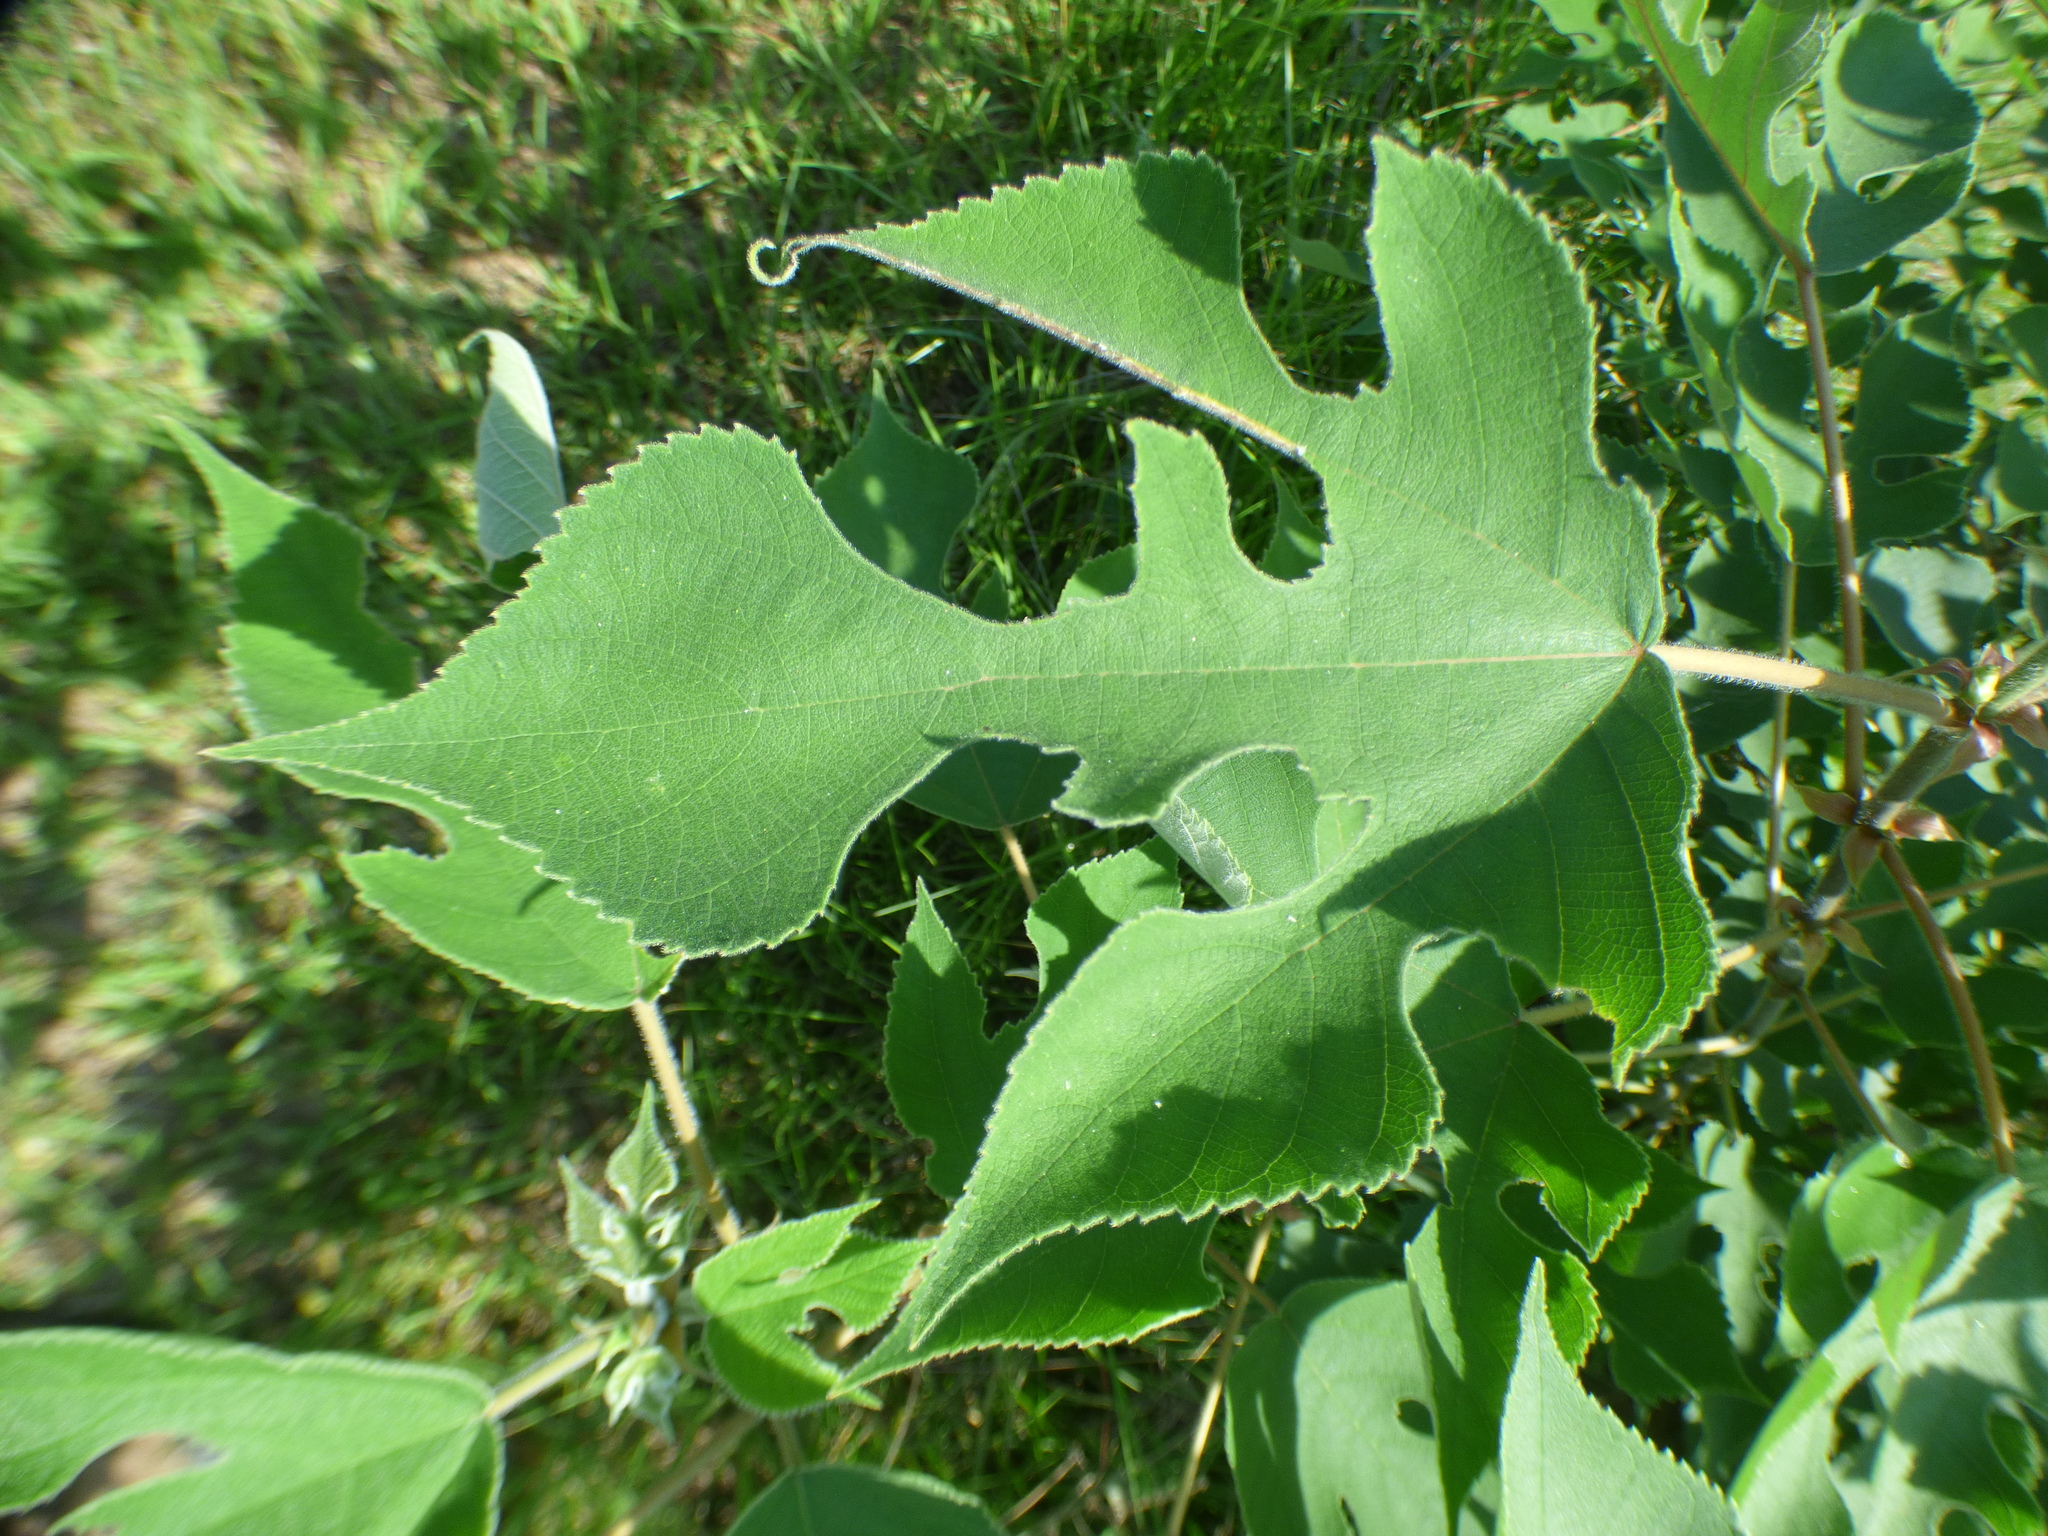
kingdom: Plantae
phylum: Tracheophyta
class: Magnoliopsida
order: Rosales
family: Moraceae
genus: Broussonetia
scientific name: Broussonetia papyrifera
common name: Paper mulberry
